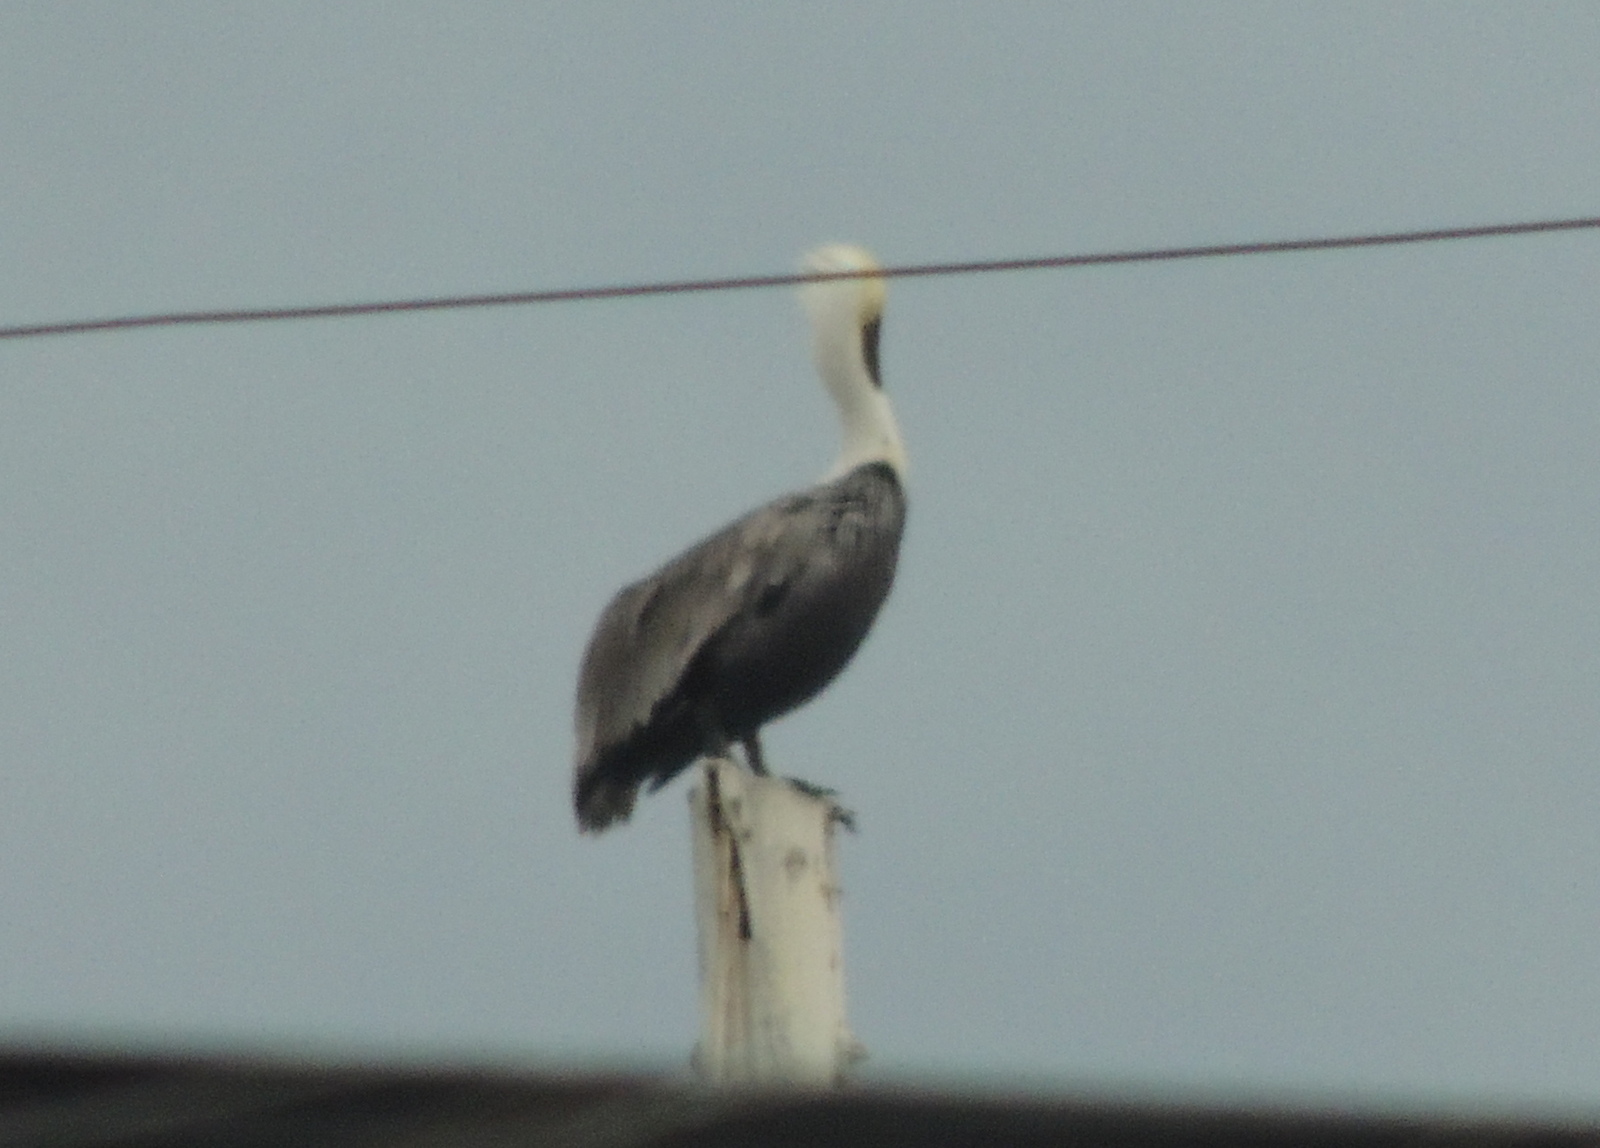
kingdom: Animalia
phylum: Chordata
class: Aves
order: Pelecaniformes
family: Pelecanidae
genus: Pelecanus
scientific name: Pelecanus occidentalis
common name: Brown pelican
